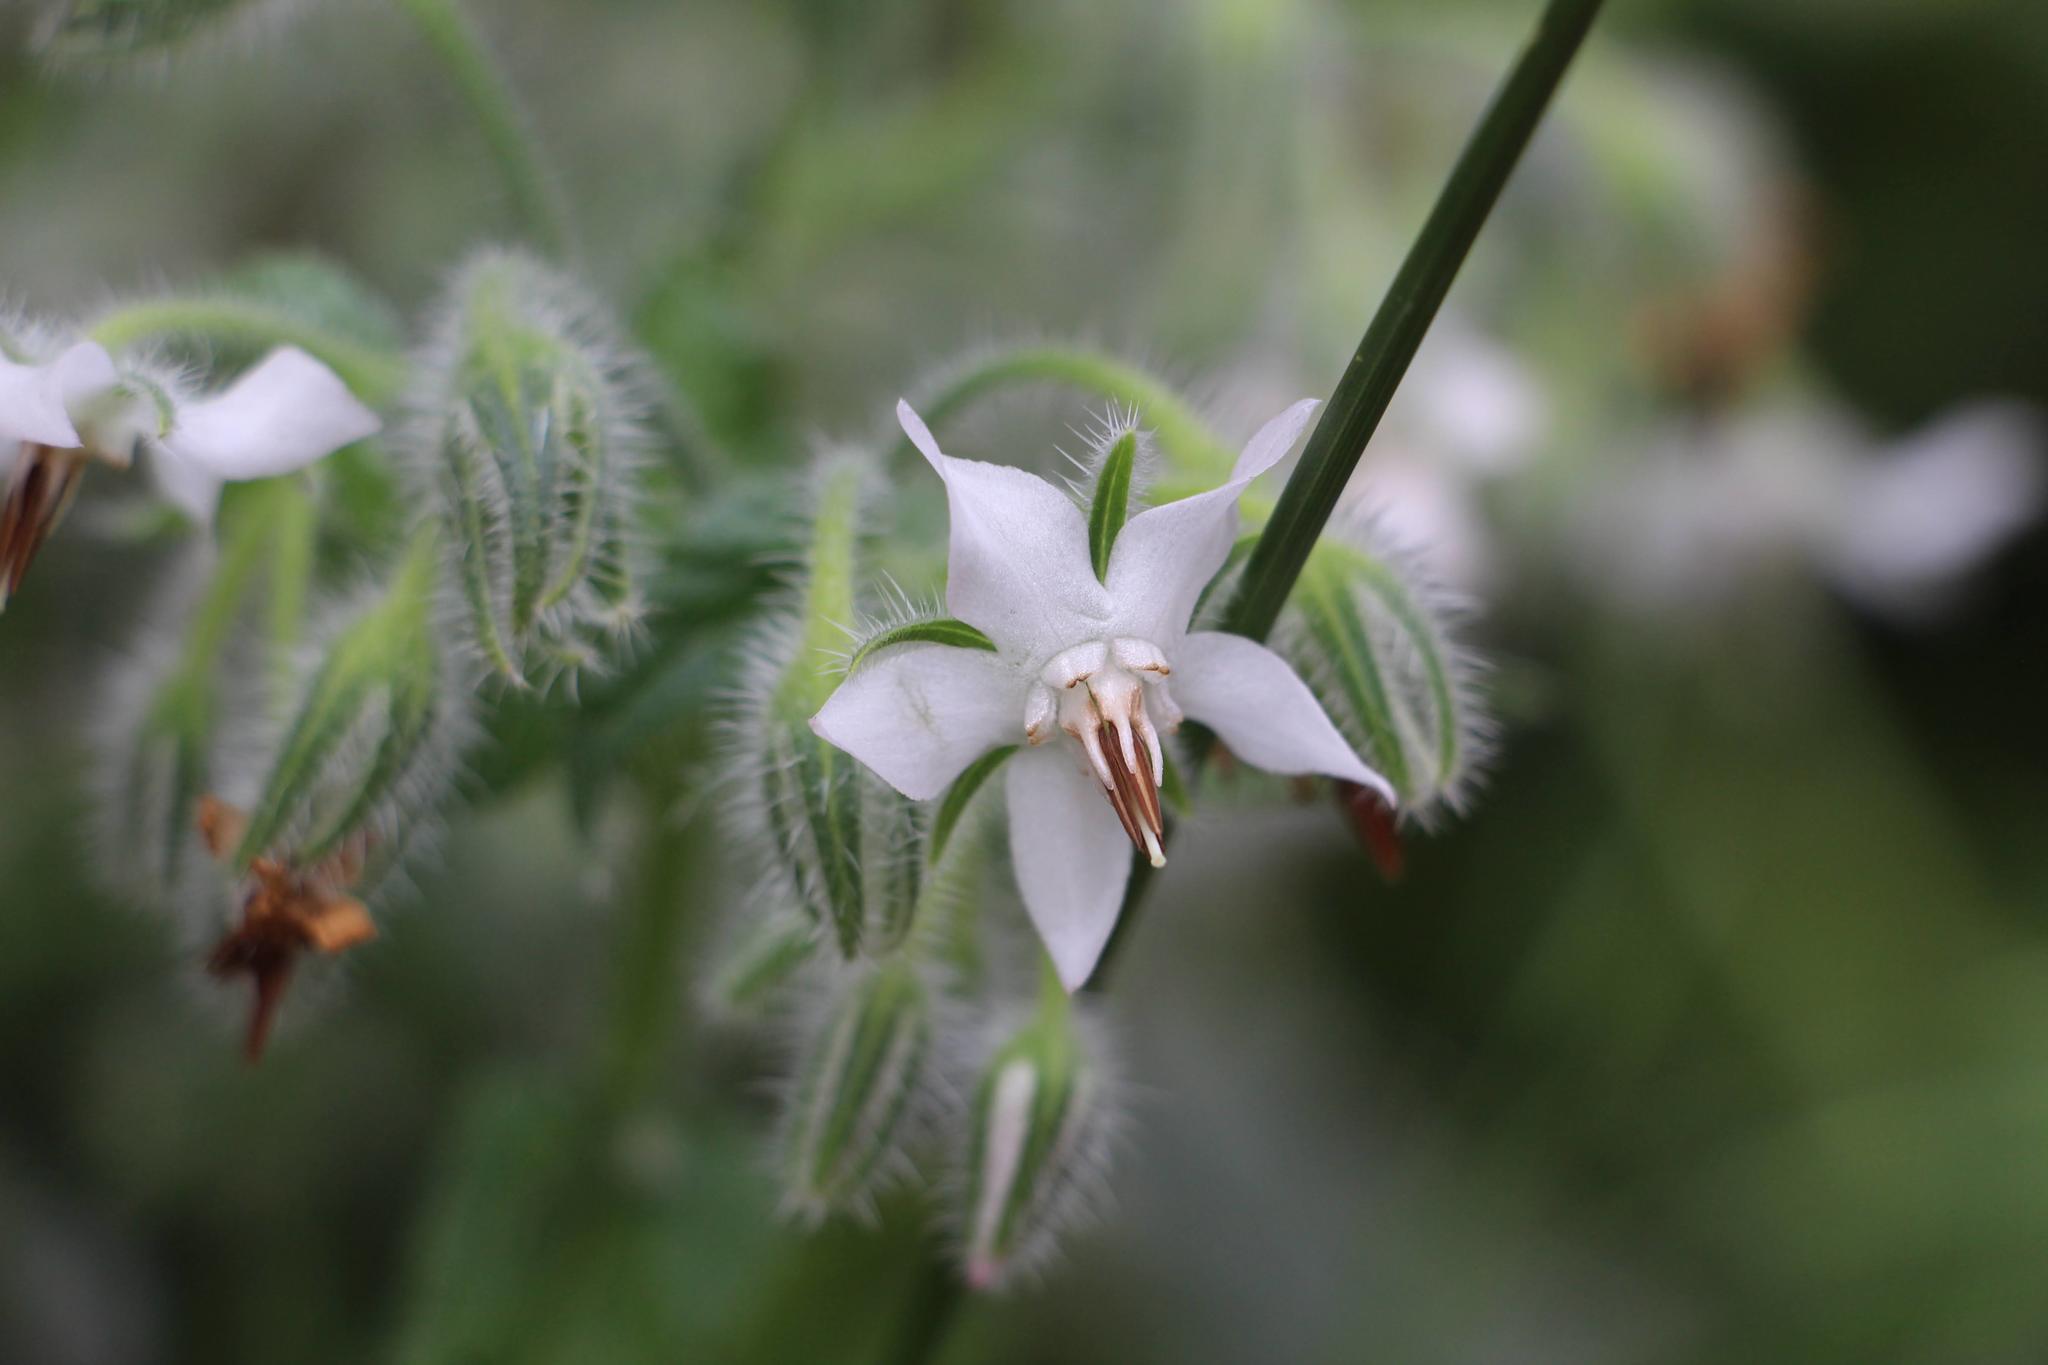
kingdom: Plantae
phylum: Tracheophyta
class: Magnoliopsida
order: Boraginales
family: Boraginaceae
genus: Borago
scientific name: Borago officinalis
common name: Borage
